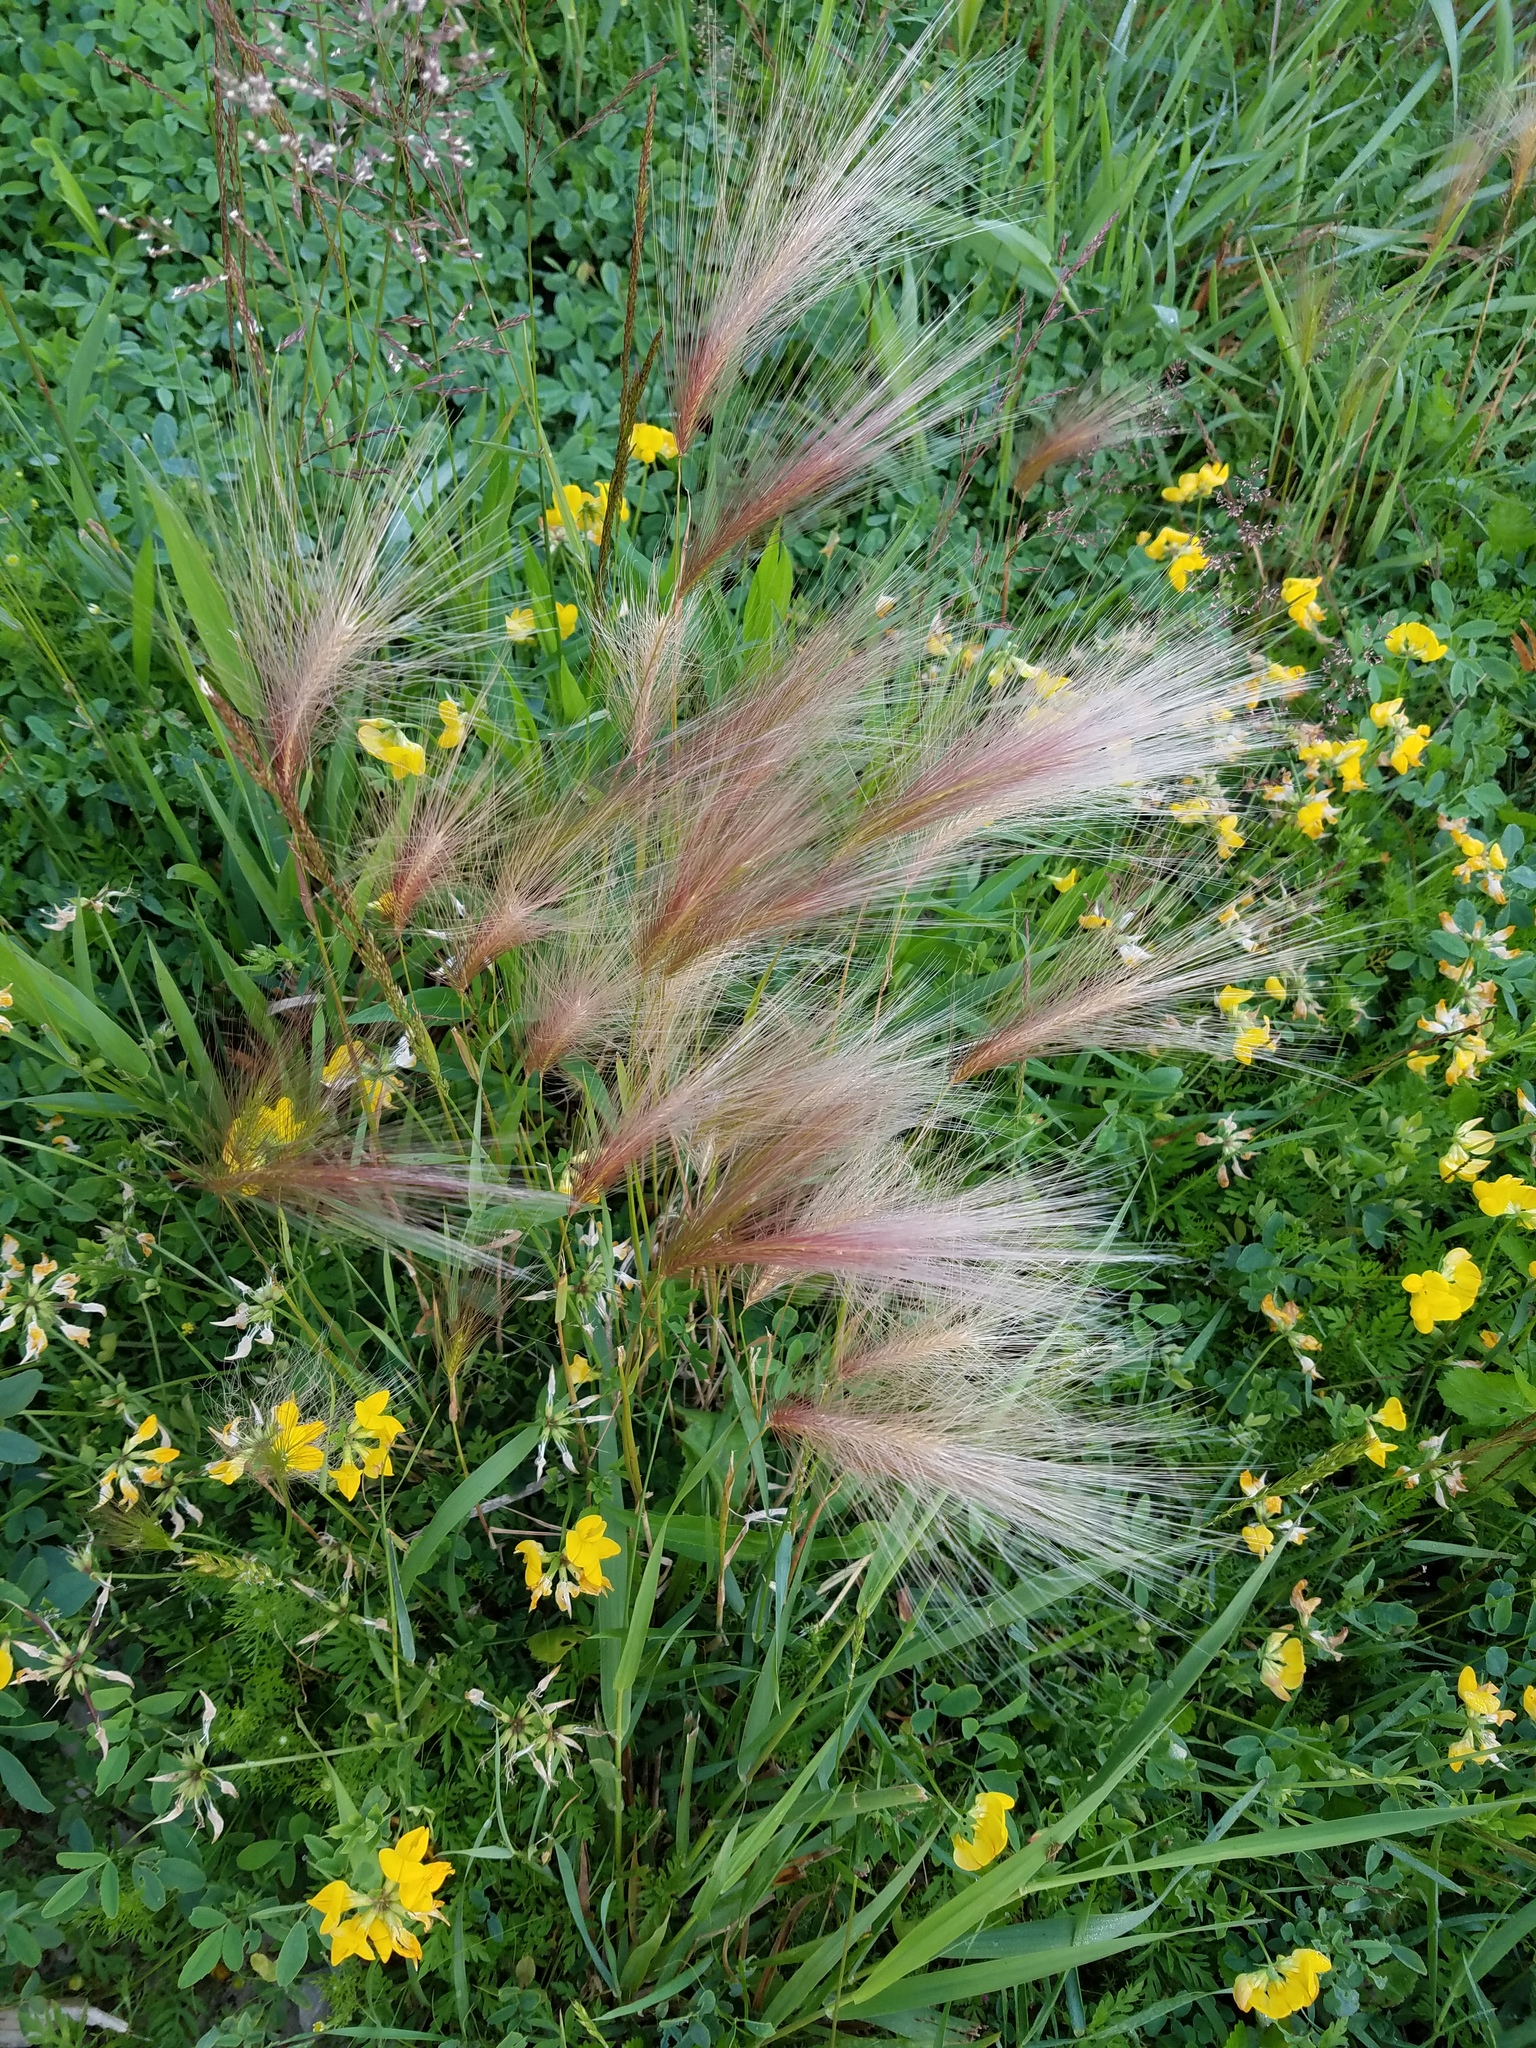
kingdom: Plantae
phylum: Tracheophyta
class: Liliopsida
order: Poales
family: Poaceae
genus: Hordeum
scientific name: Hordeum jubatum
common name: Foxtail barley
